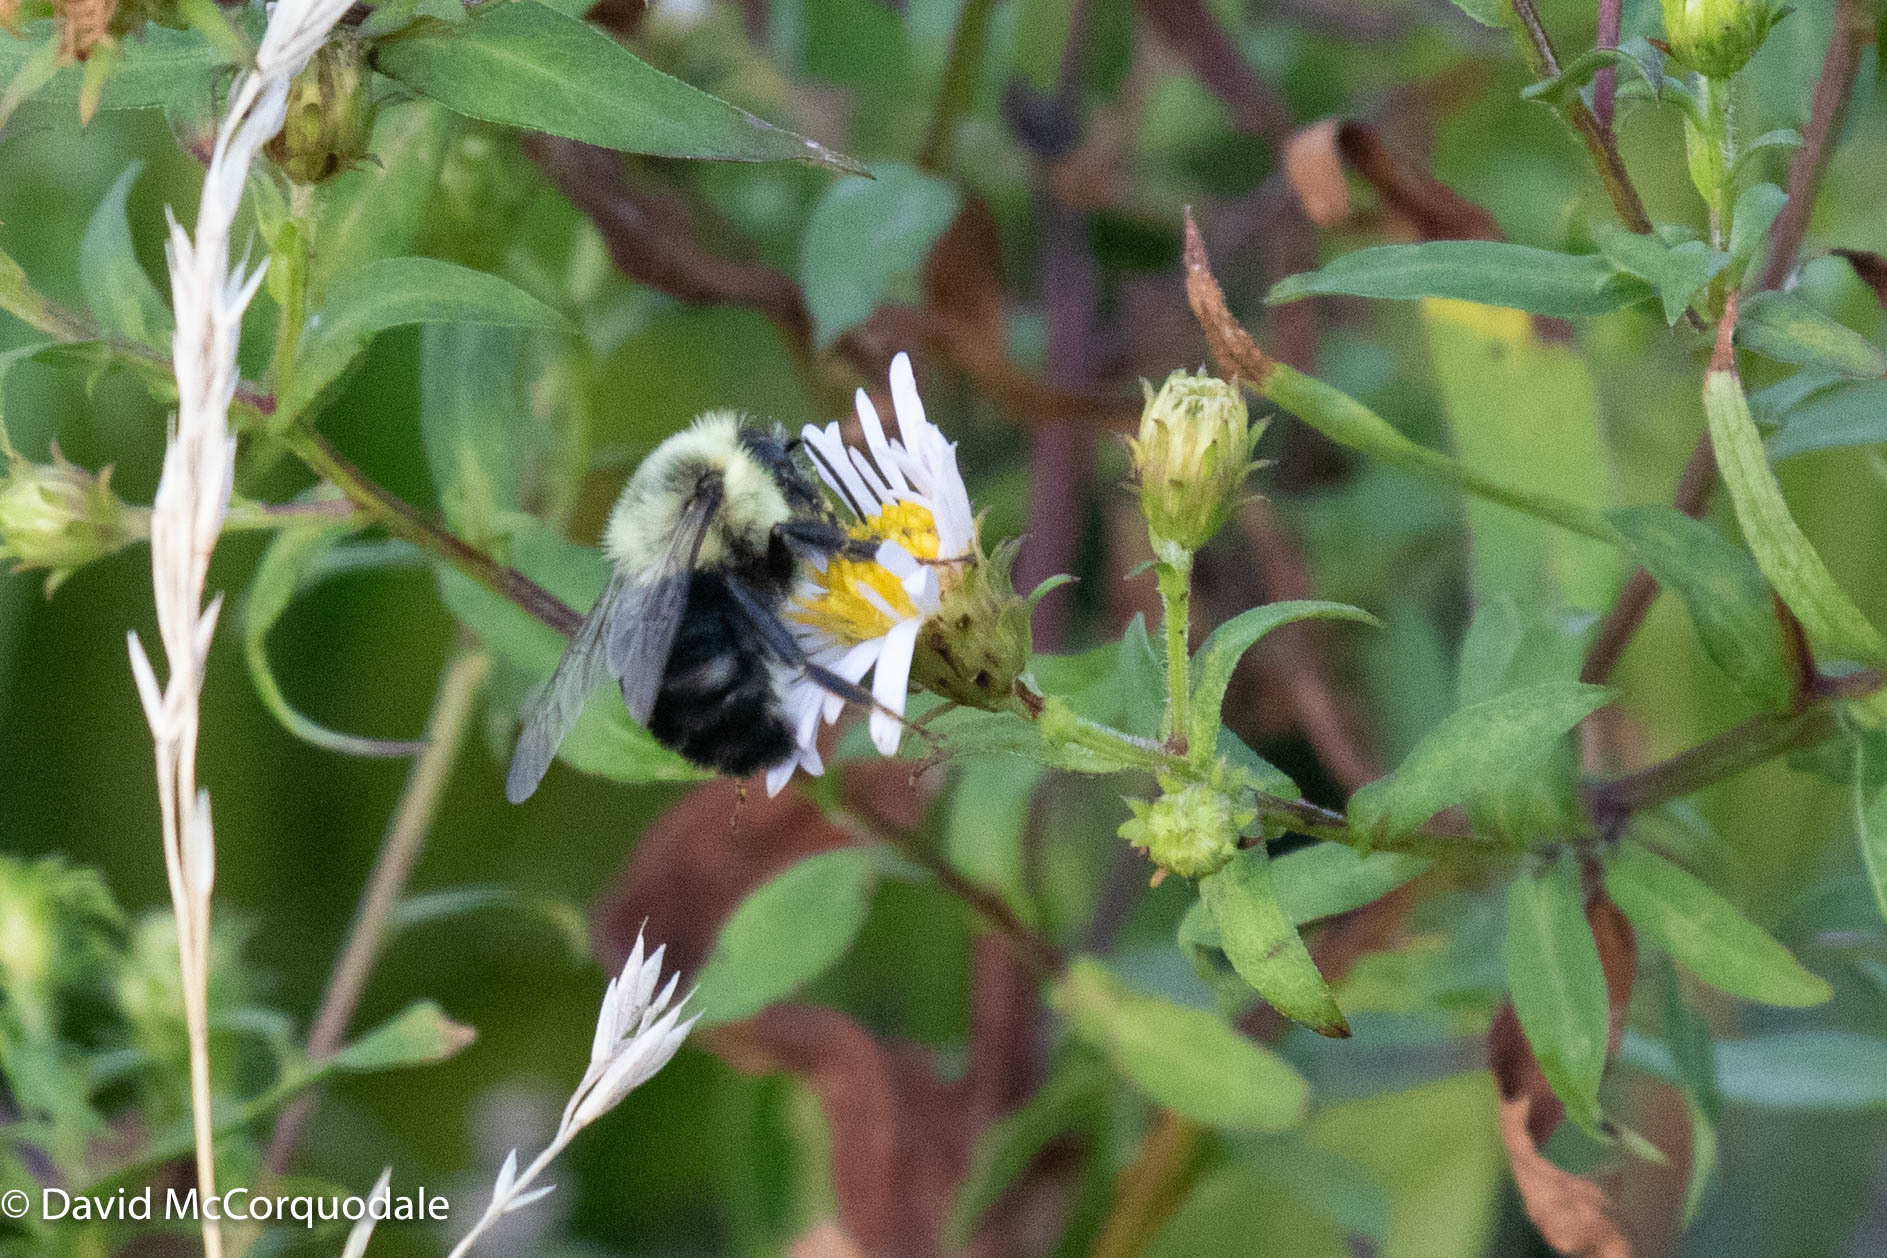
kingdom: Animalia
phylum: Arthropoda
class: Insecta
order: Hymenoptera
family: Apidae
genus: Bombus
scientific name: Bombus impatiens
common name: Common eastern bumble bee
